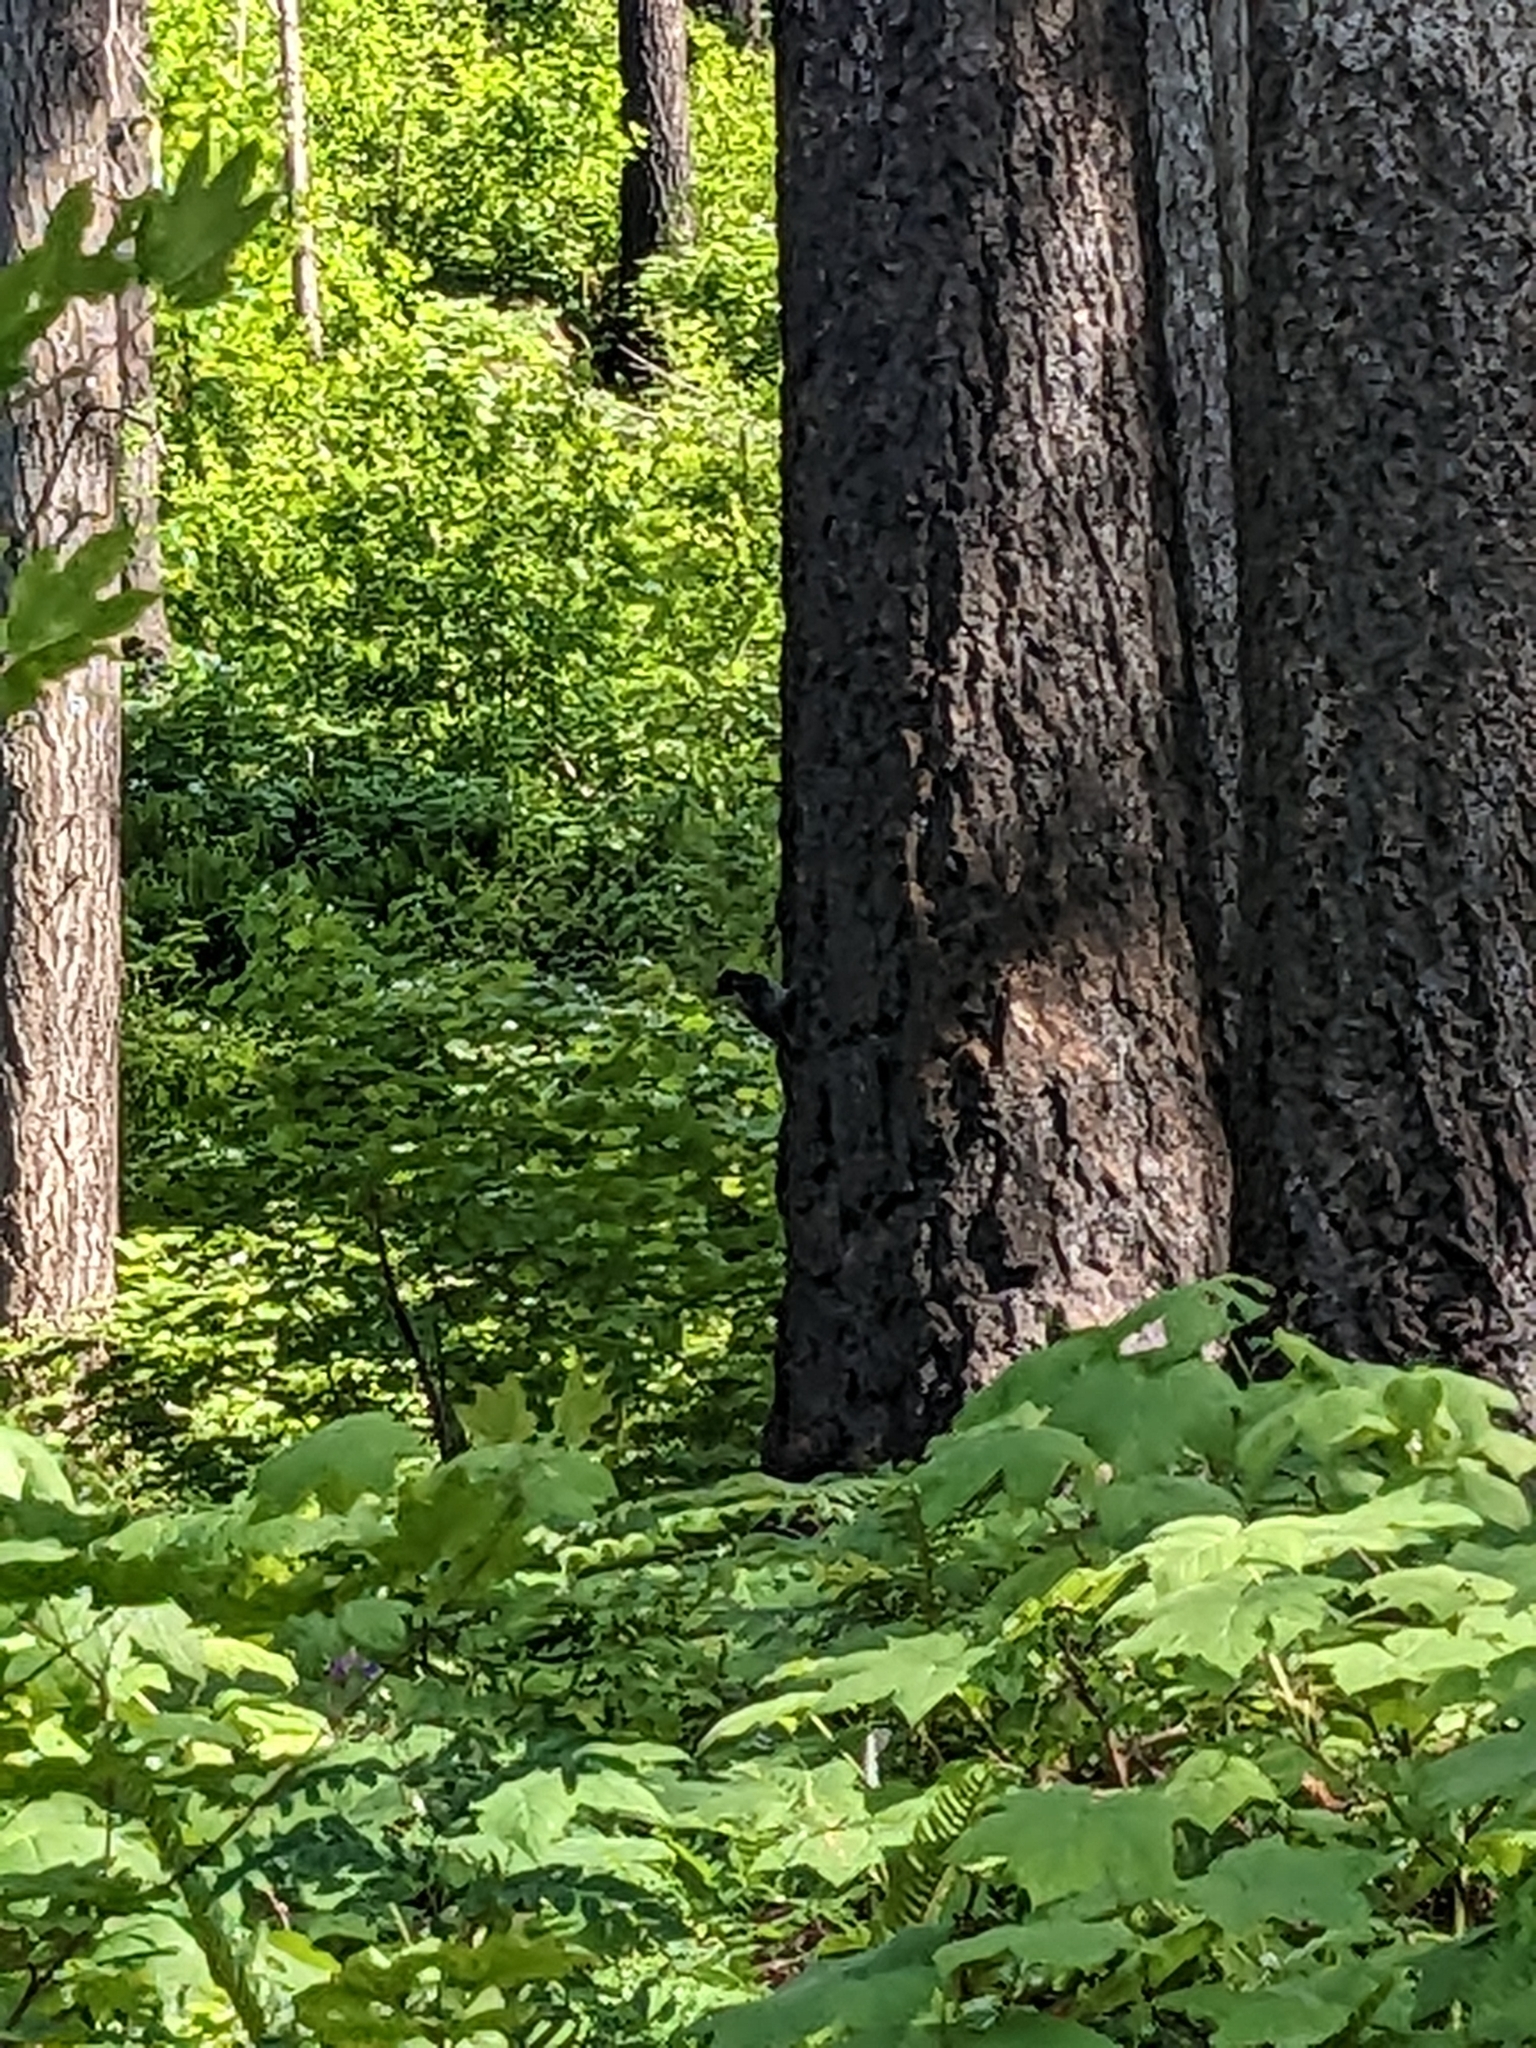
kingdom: Animalia
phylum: Chordata
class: Aves
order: Piciformes
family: Picidae
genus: Picoides
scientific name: Picoides arcticus
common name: Black-backed woodpecker
